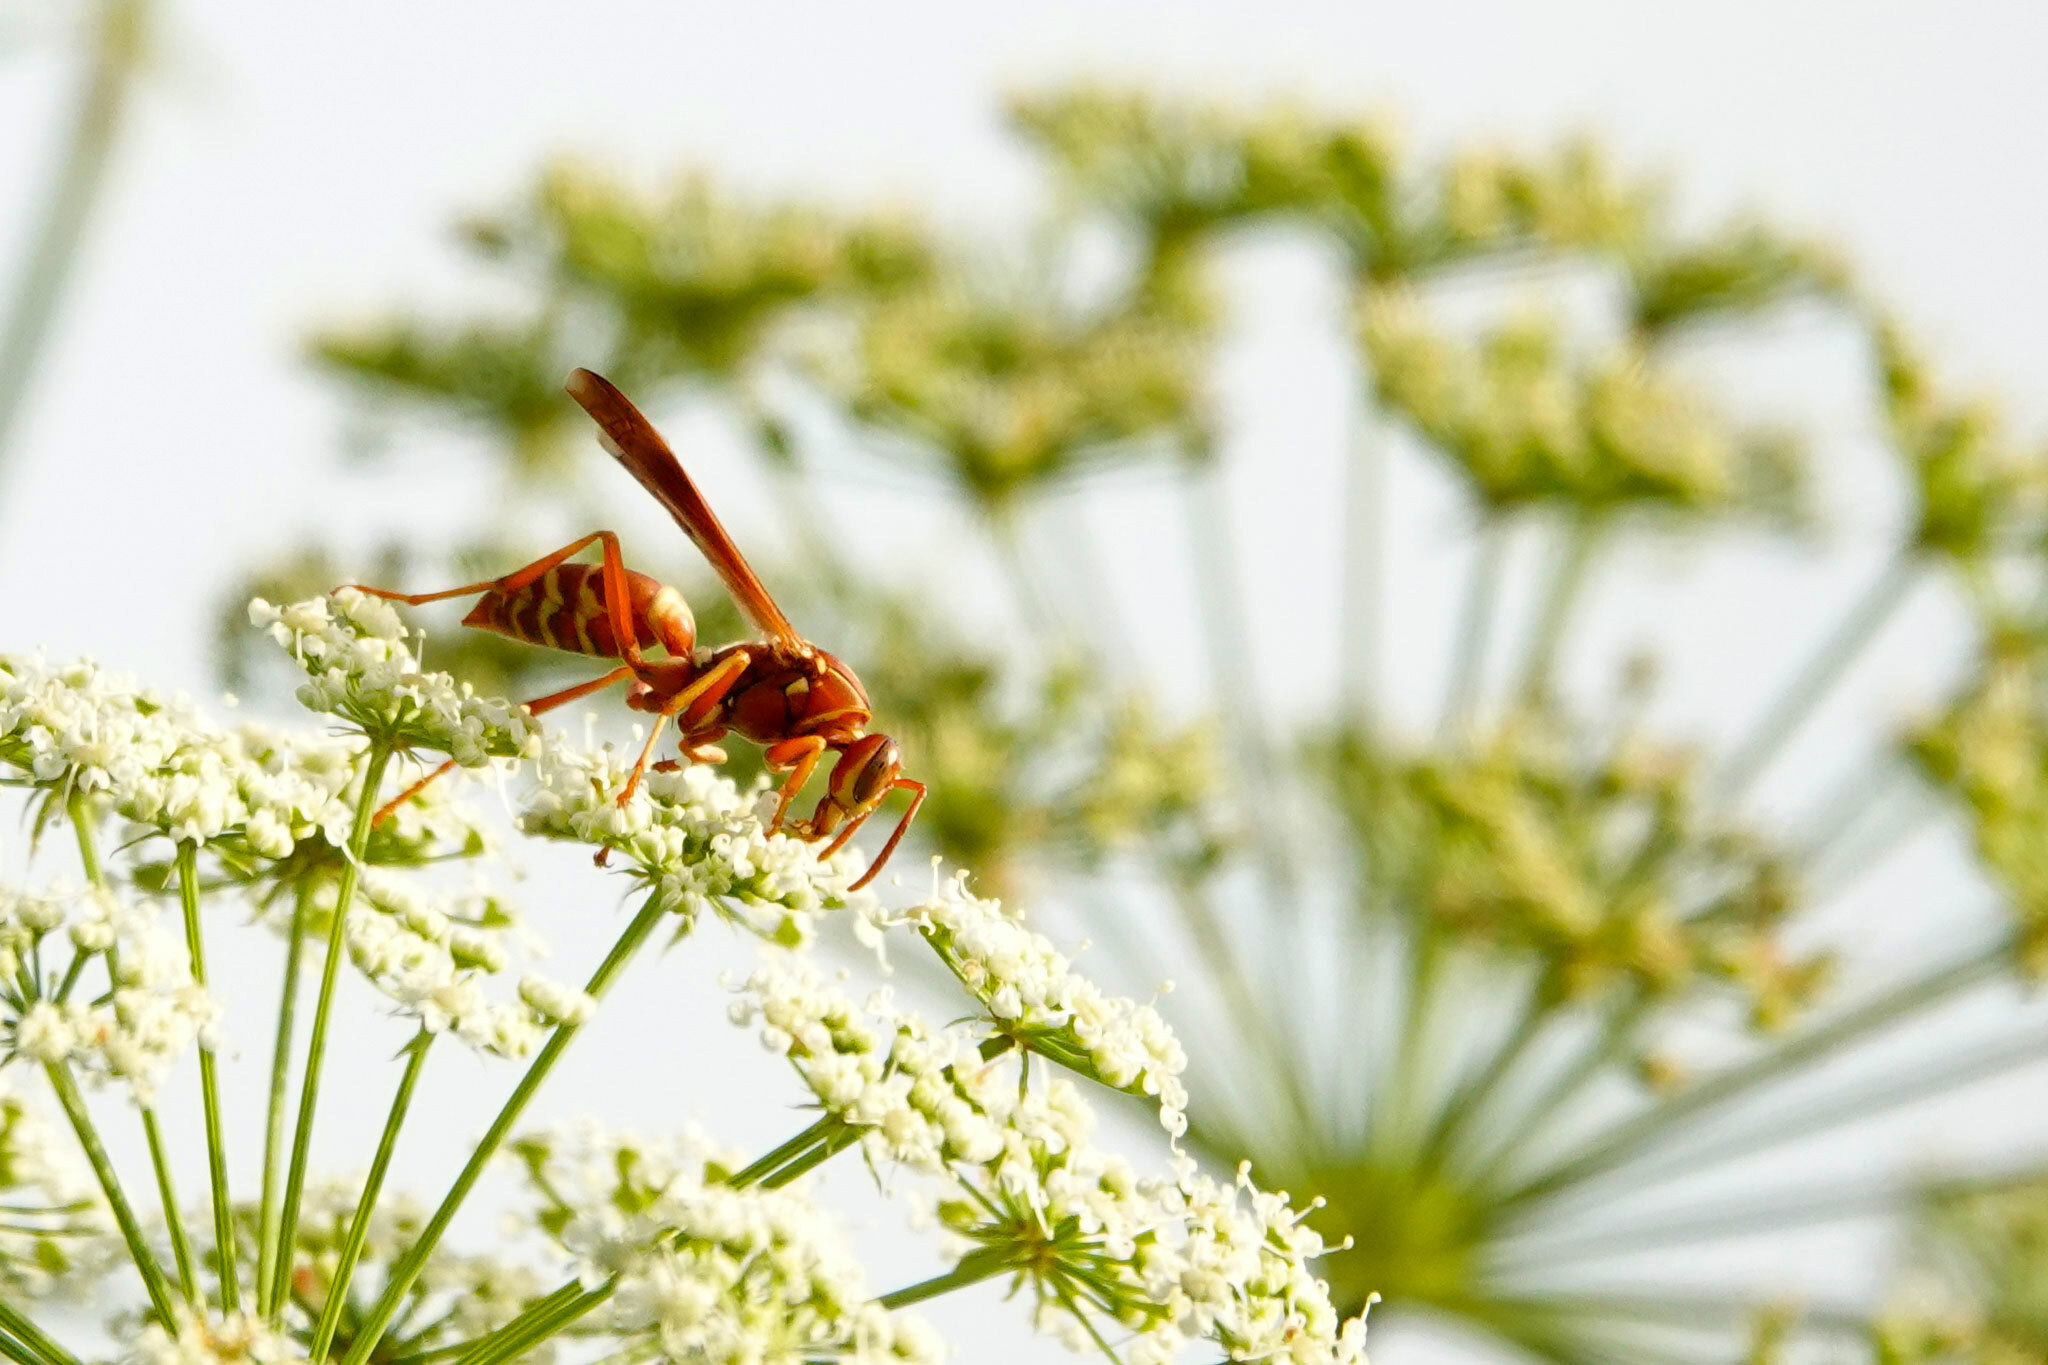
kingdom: Animalia
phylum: Arthropoda
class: Insecta
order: Hymenoptera
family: Eumenidae
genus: Polistes
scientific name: Polistes bellicosus
